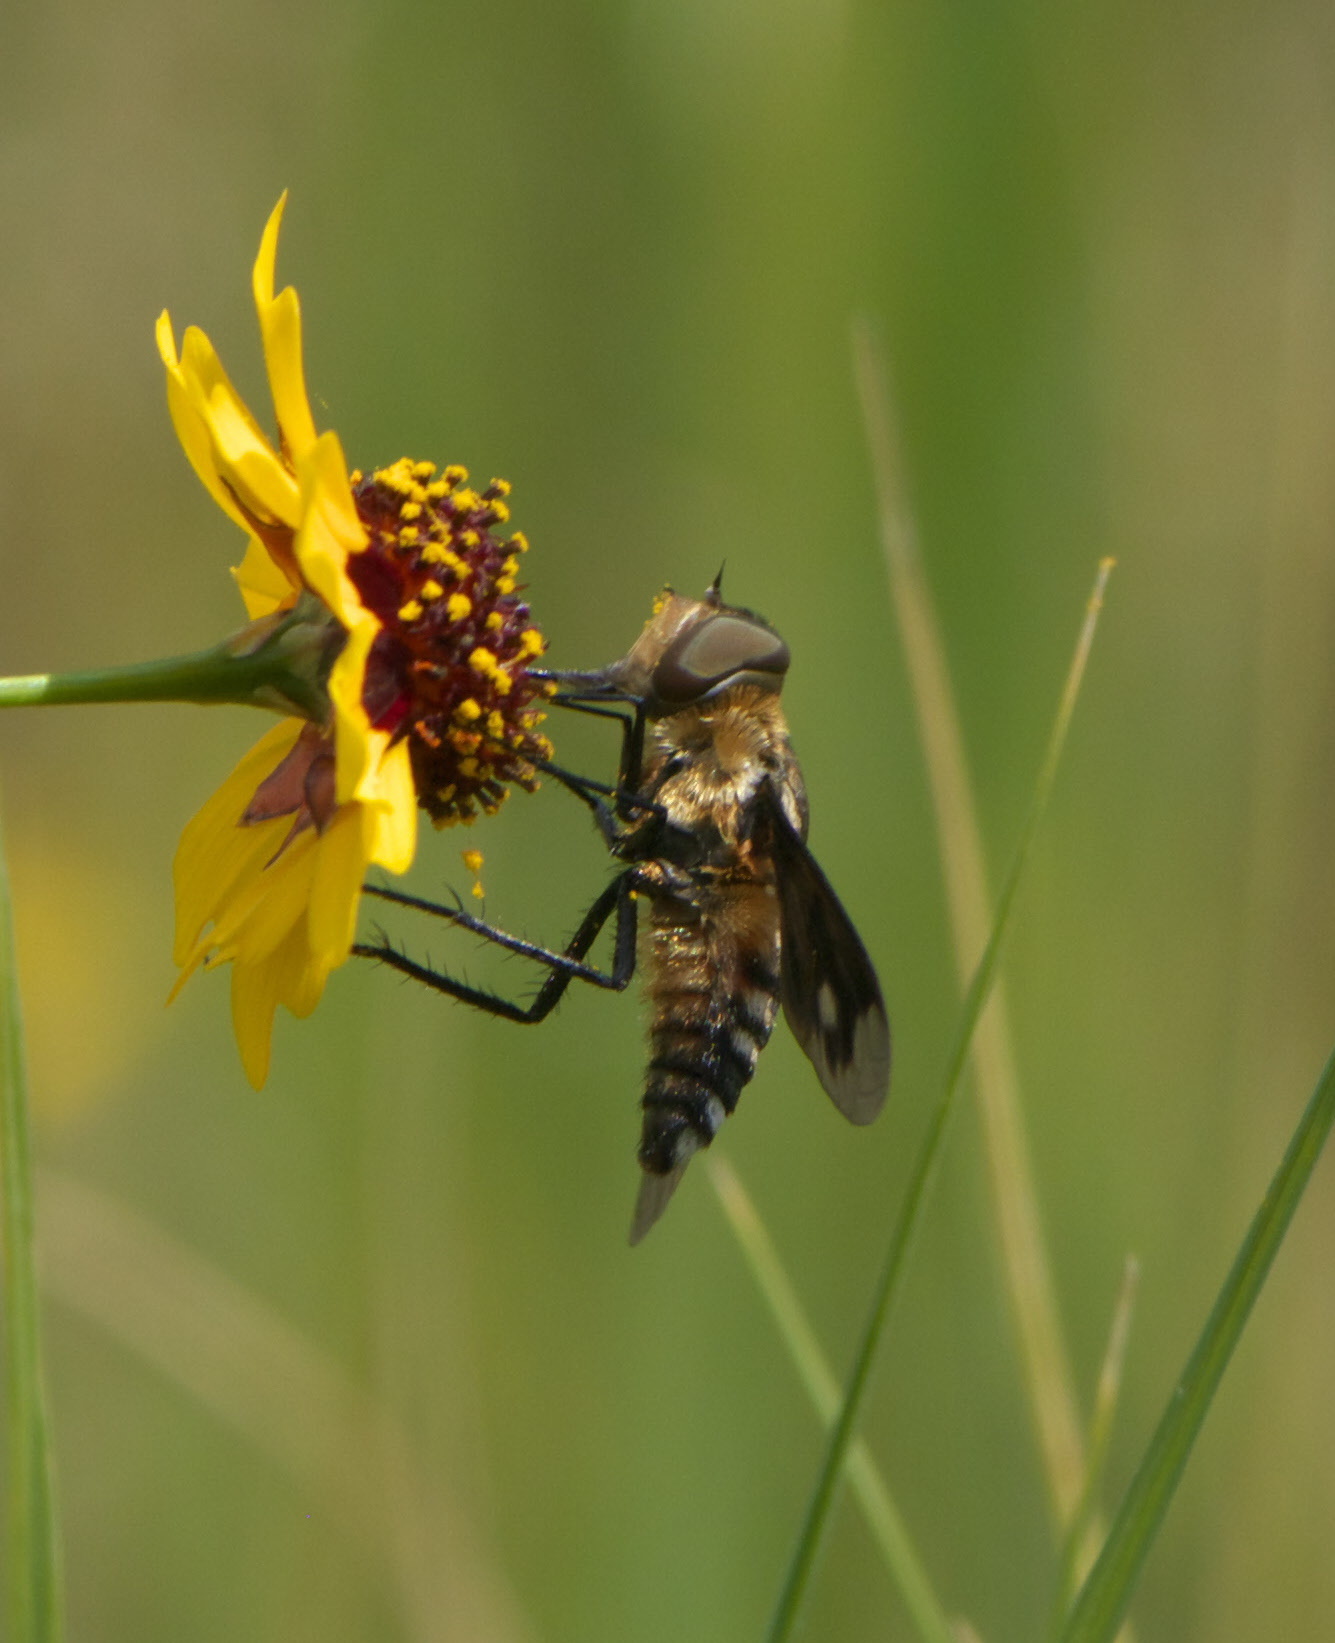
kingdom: Animalia
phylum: Arthropoda
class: Insecta
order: Diptera
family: Bombyliidae
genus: Exoprosopa
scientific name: Exoprosopa meigenii
